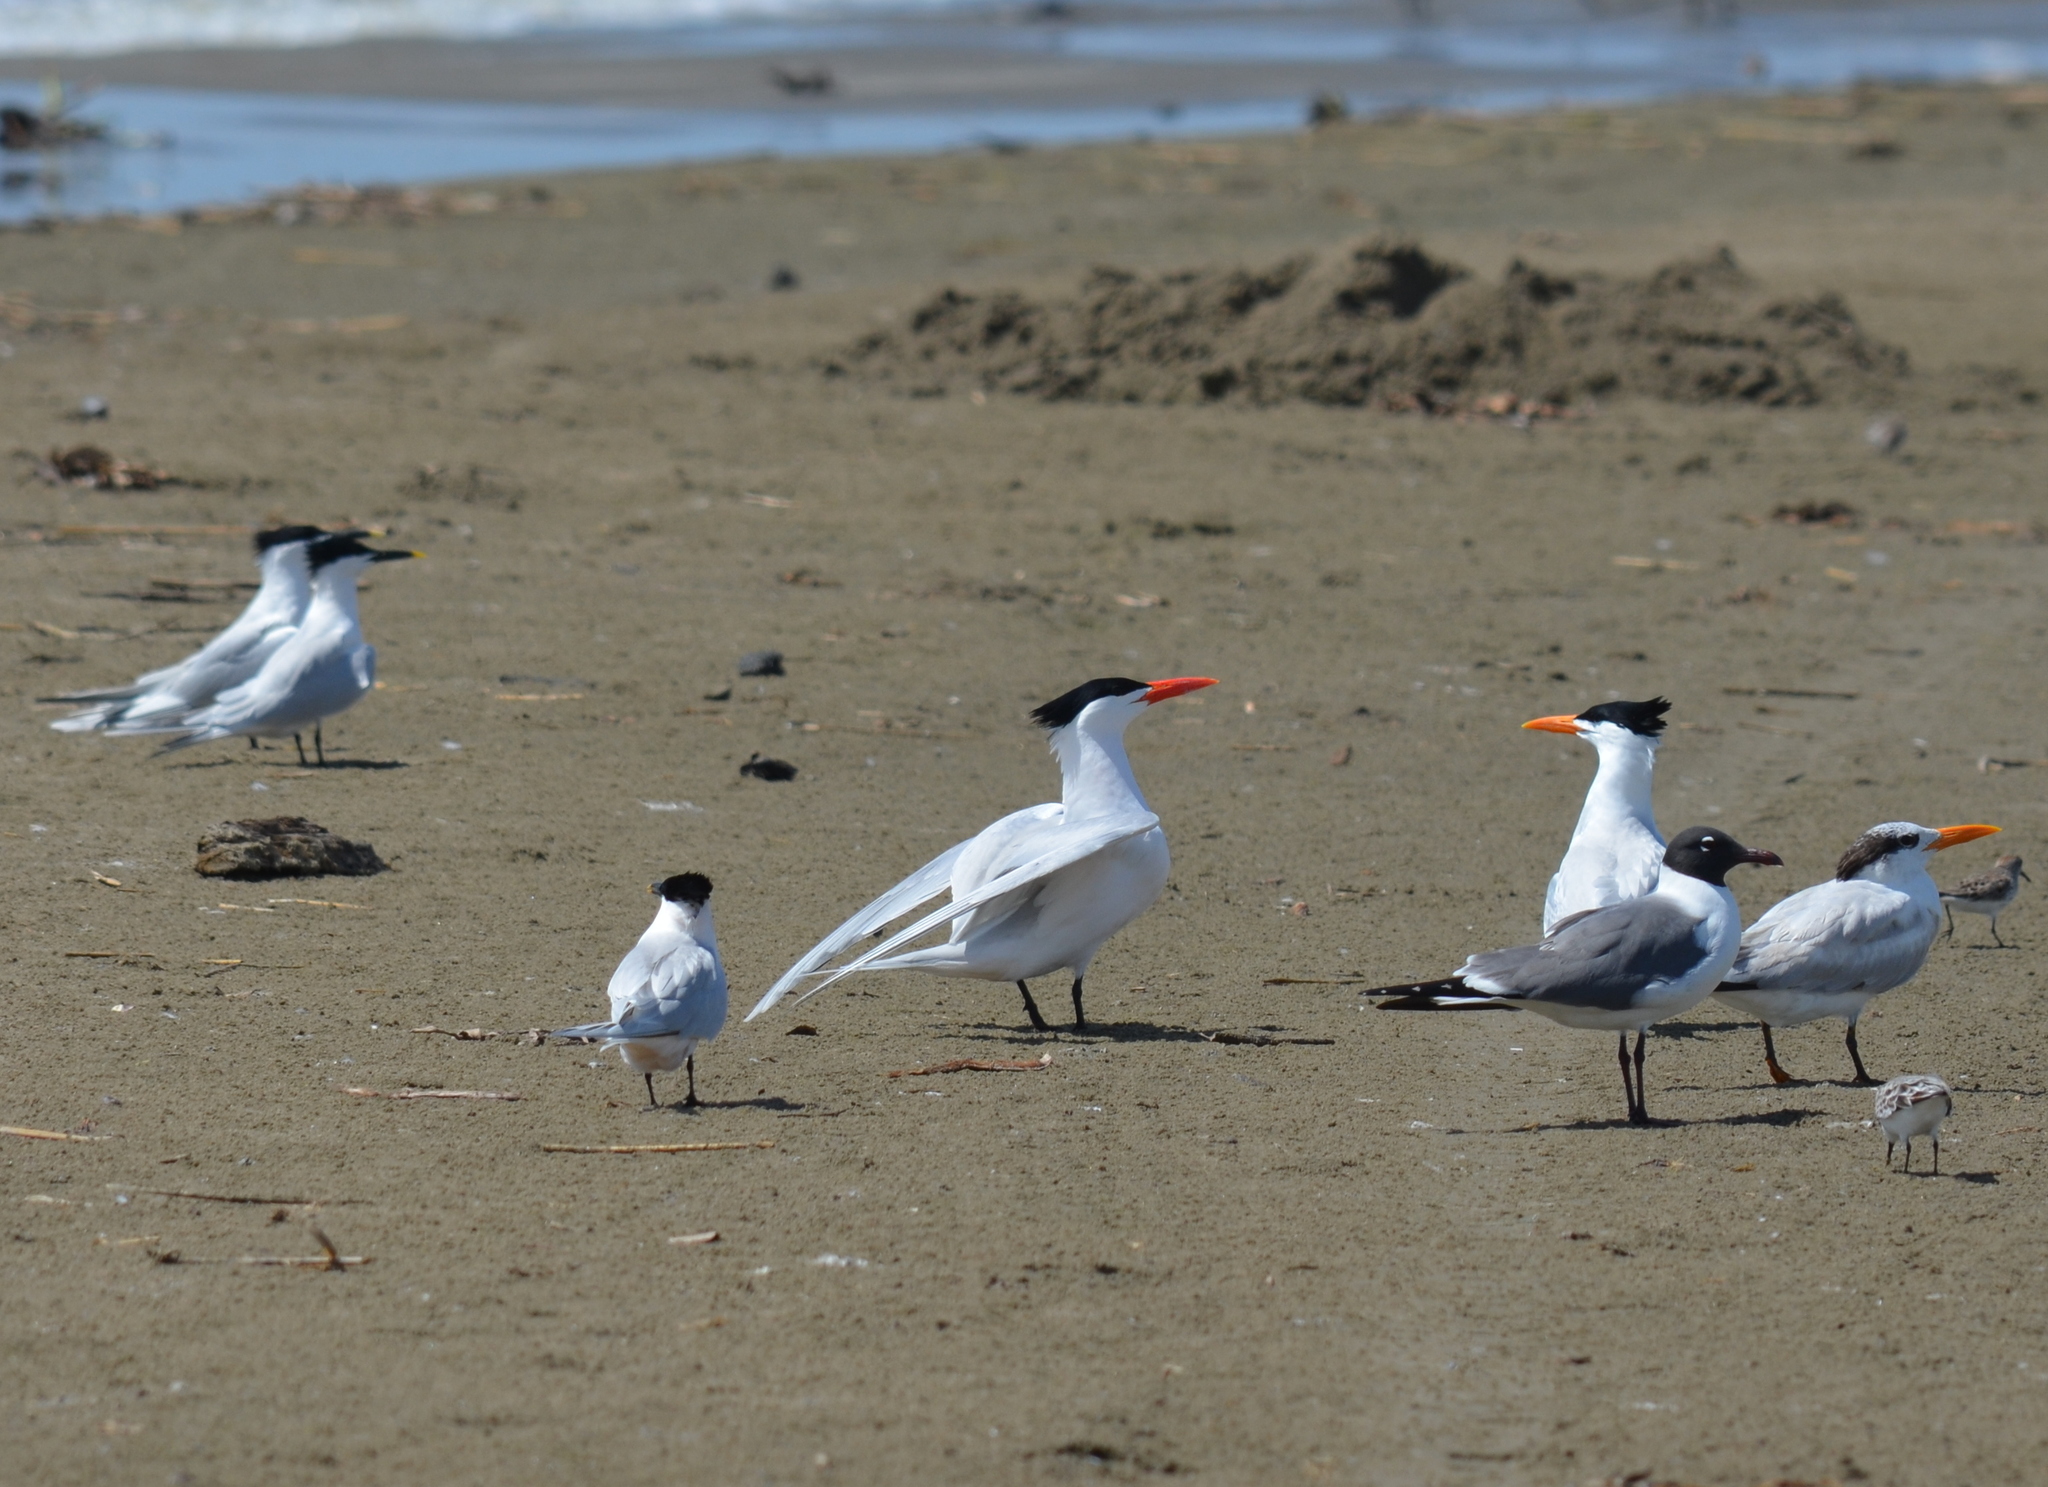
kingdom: Animalia
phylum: Chordata
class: Aves
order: Charadriiformes
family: Laridae
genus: Thalasseus
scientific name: Thalasseus maximus
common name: Royal tern
